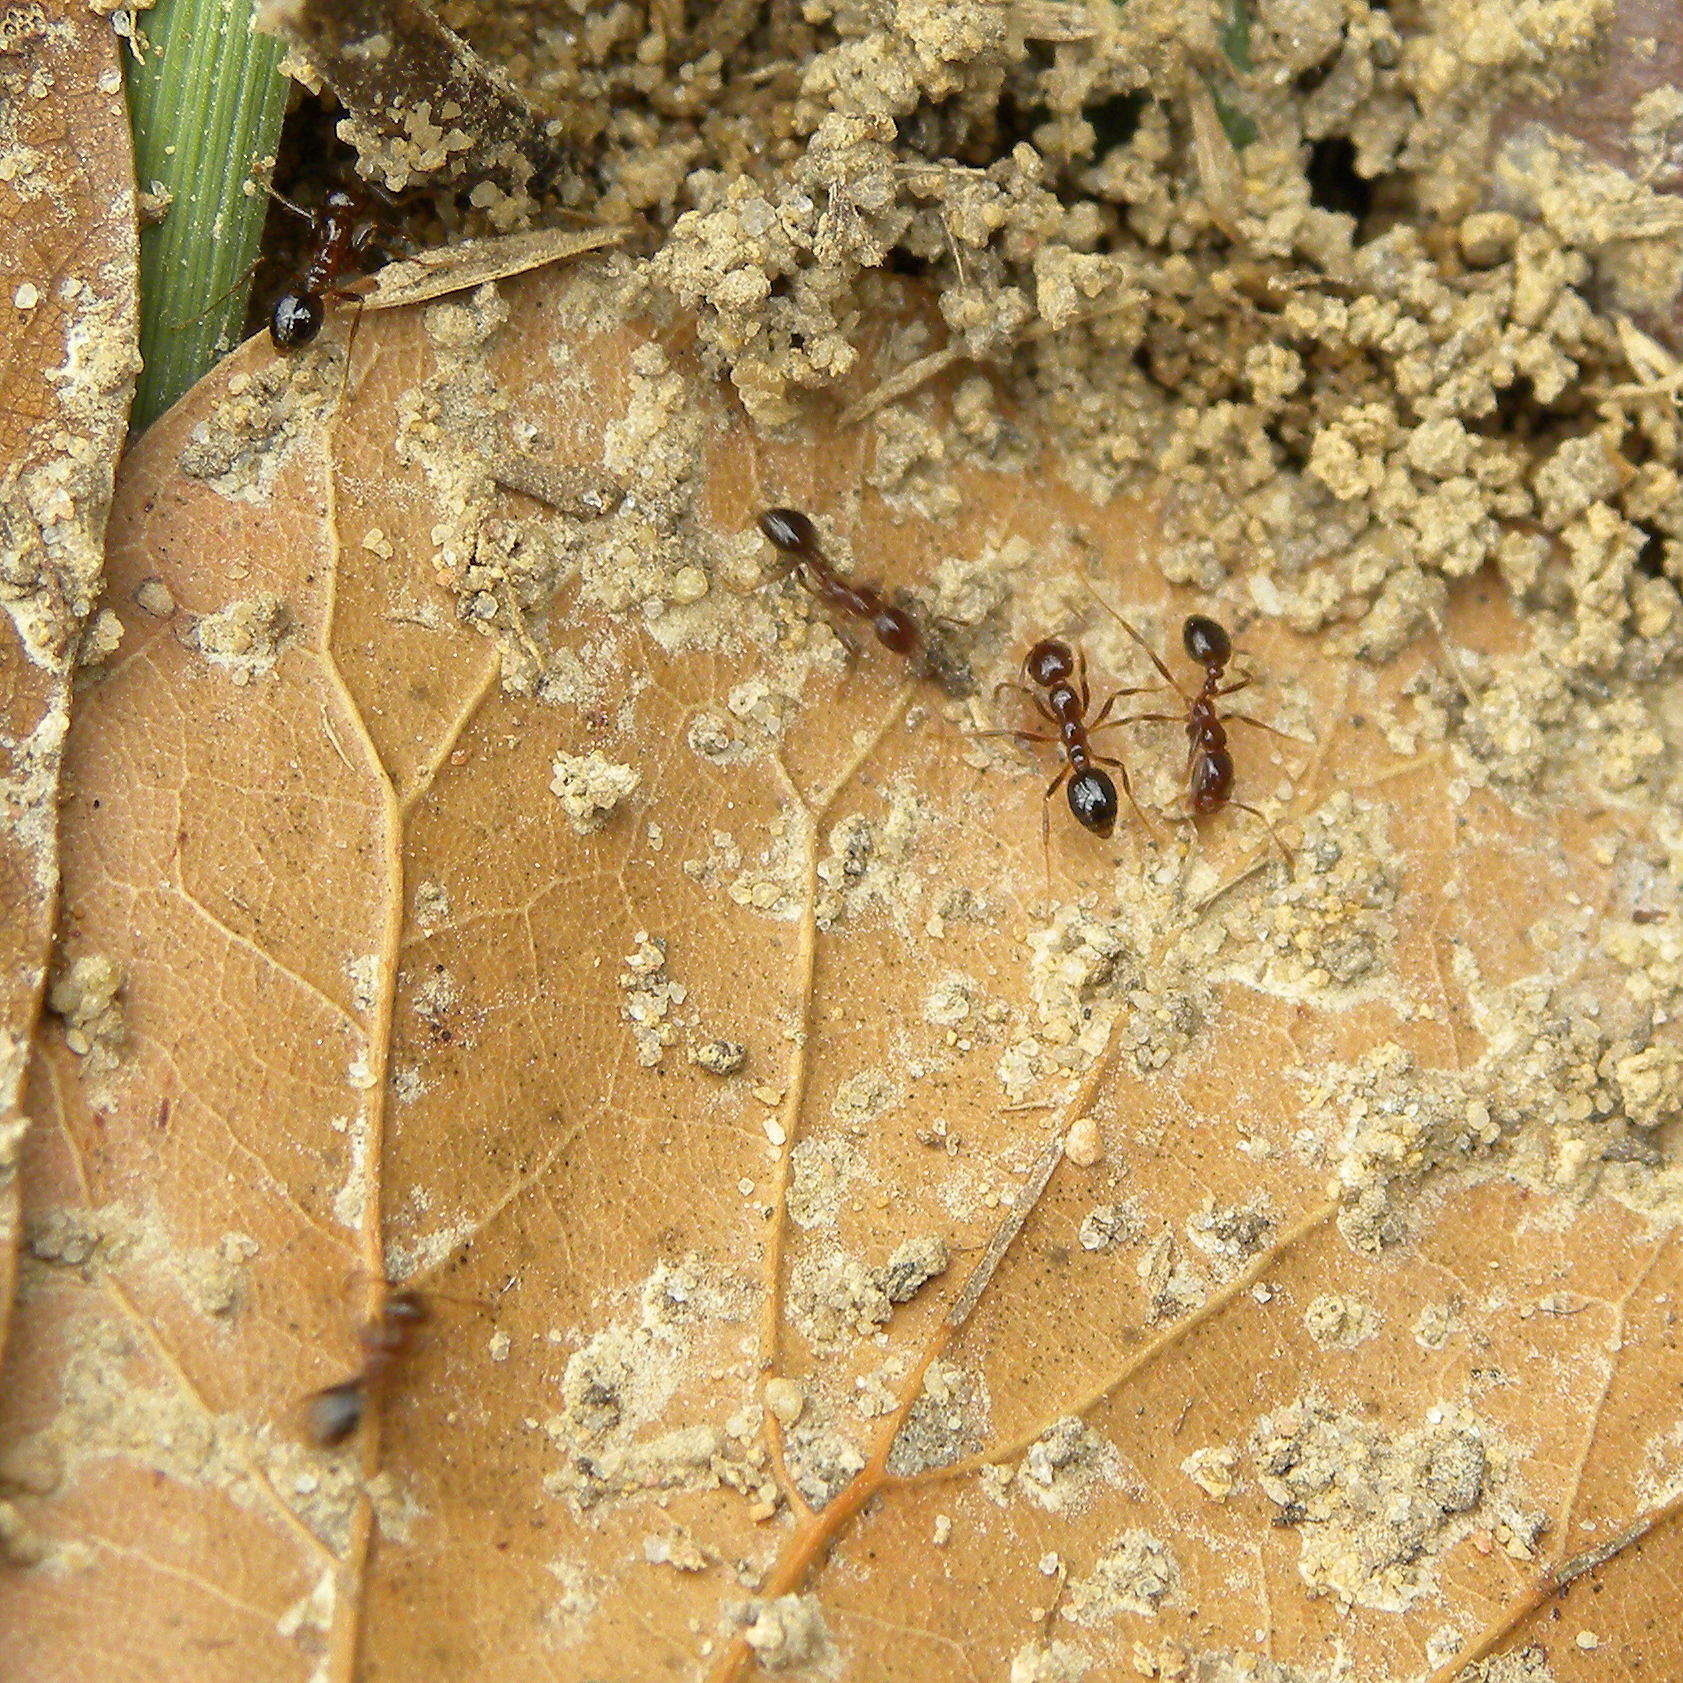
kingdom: Animalia
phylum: Arthropoda
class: Insecta
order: Hymenoptera
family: Formicidae
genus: Solenopsis
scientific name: Solenopsis invicta
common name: Red imported fire ant
